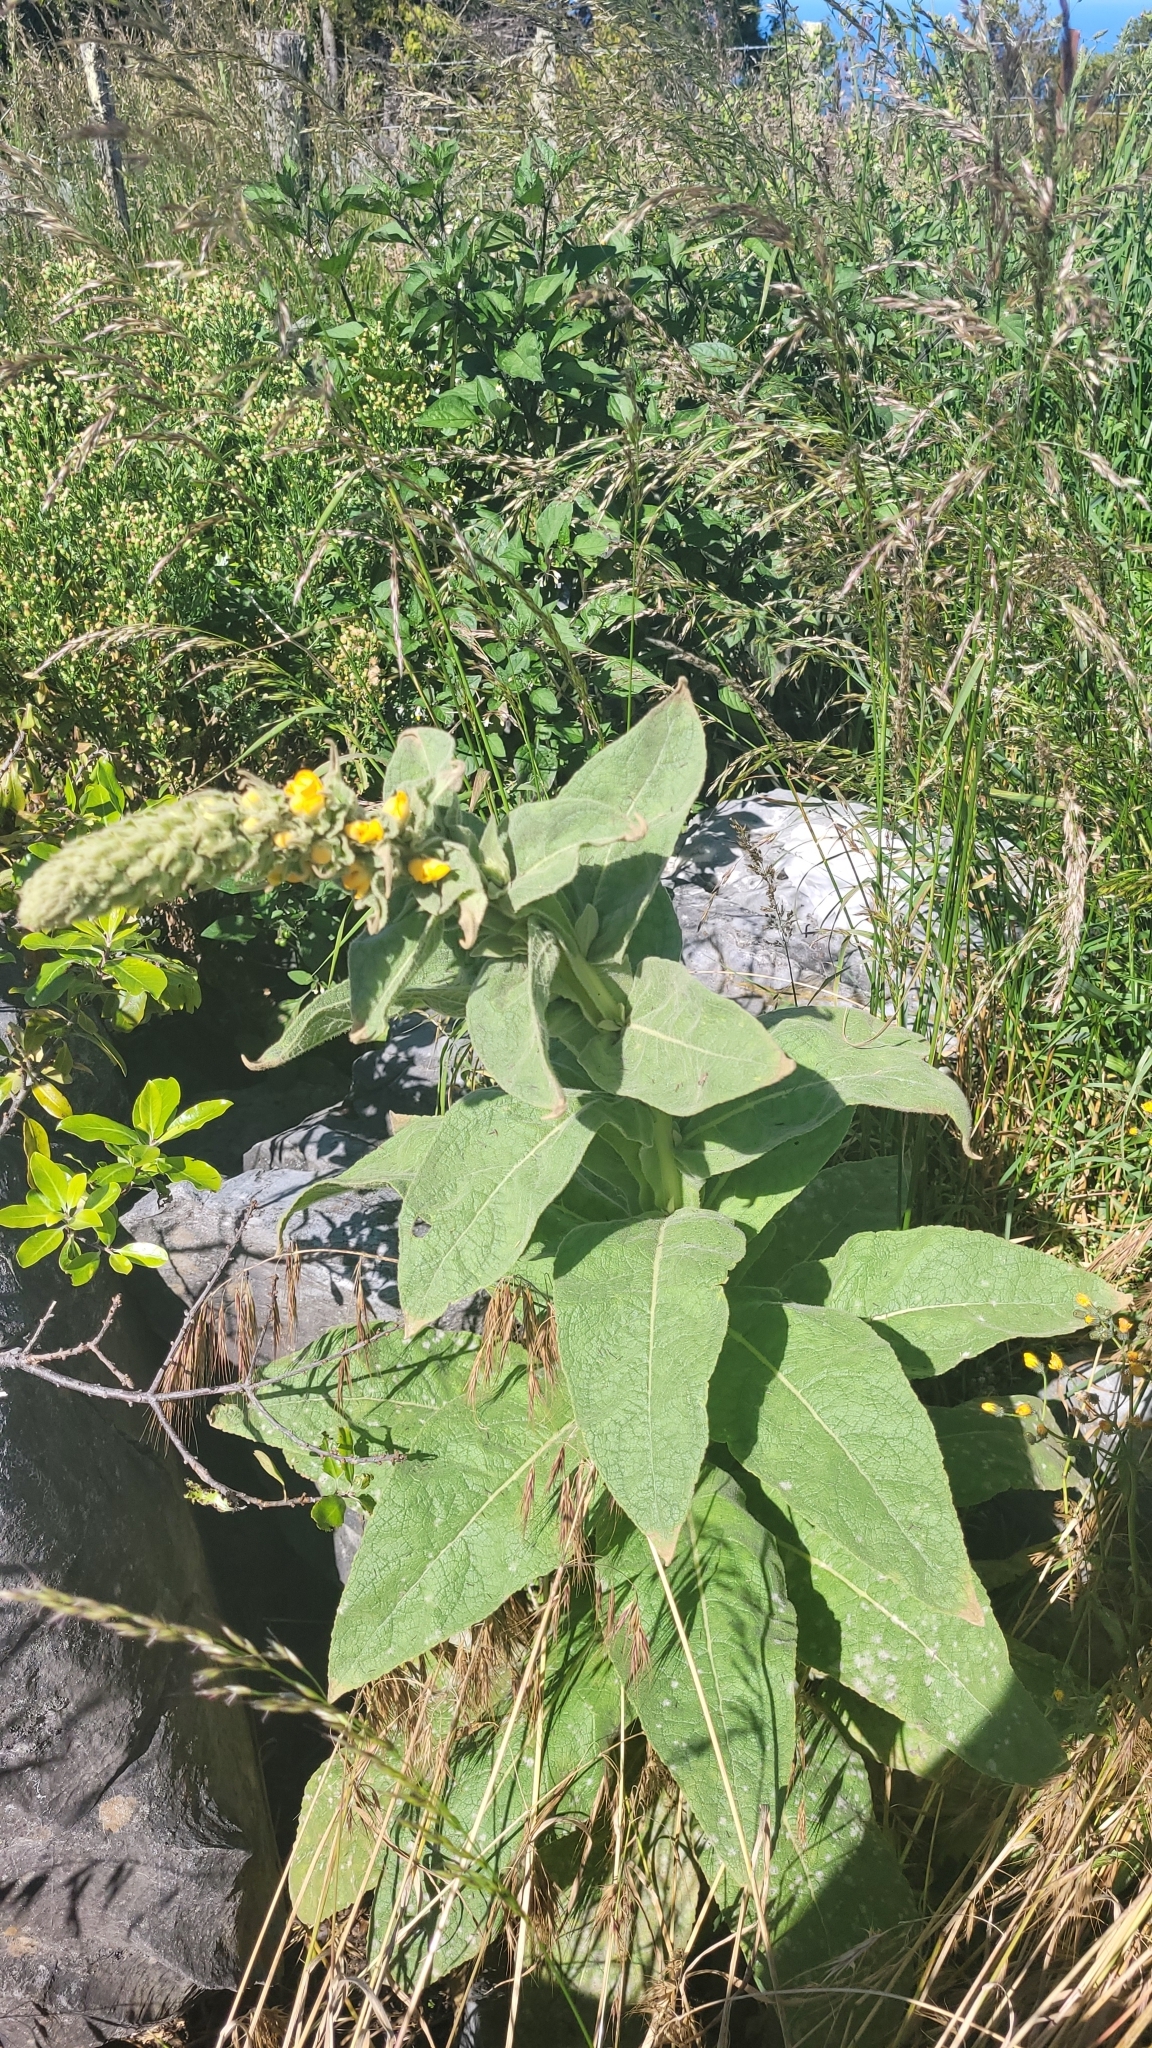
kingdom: Plantae
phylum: Tracheophyta
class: Magnoliopsida
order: Lamiales
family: Scrophulariaceae
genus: Verbascum
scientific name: Verbascum thapsus
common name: Common mullein
